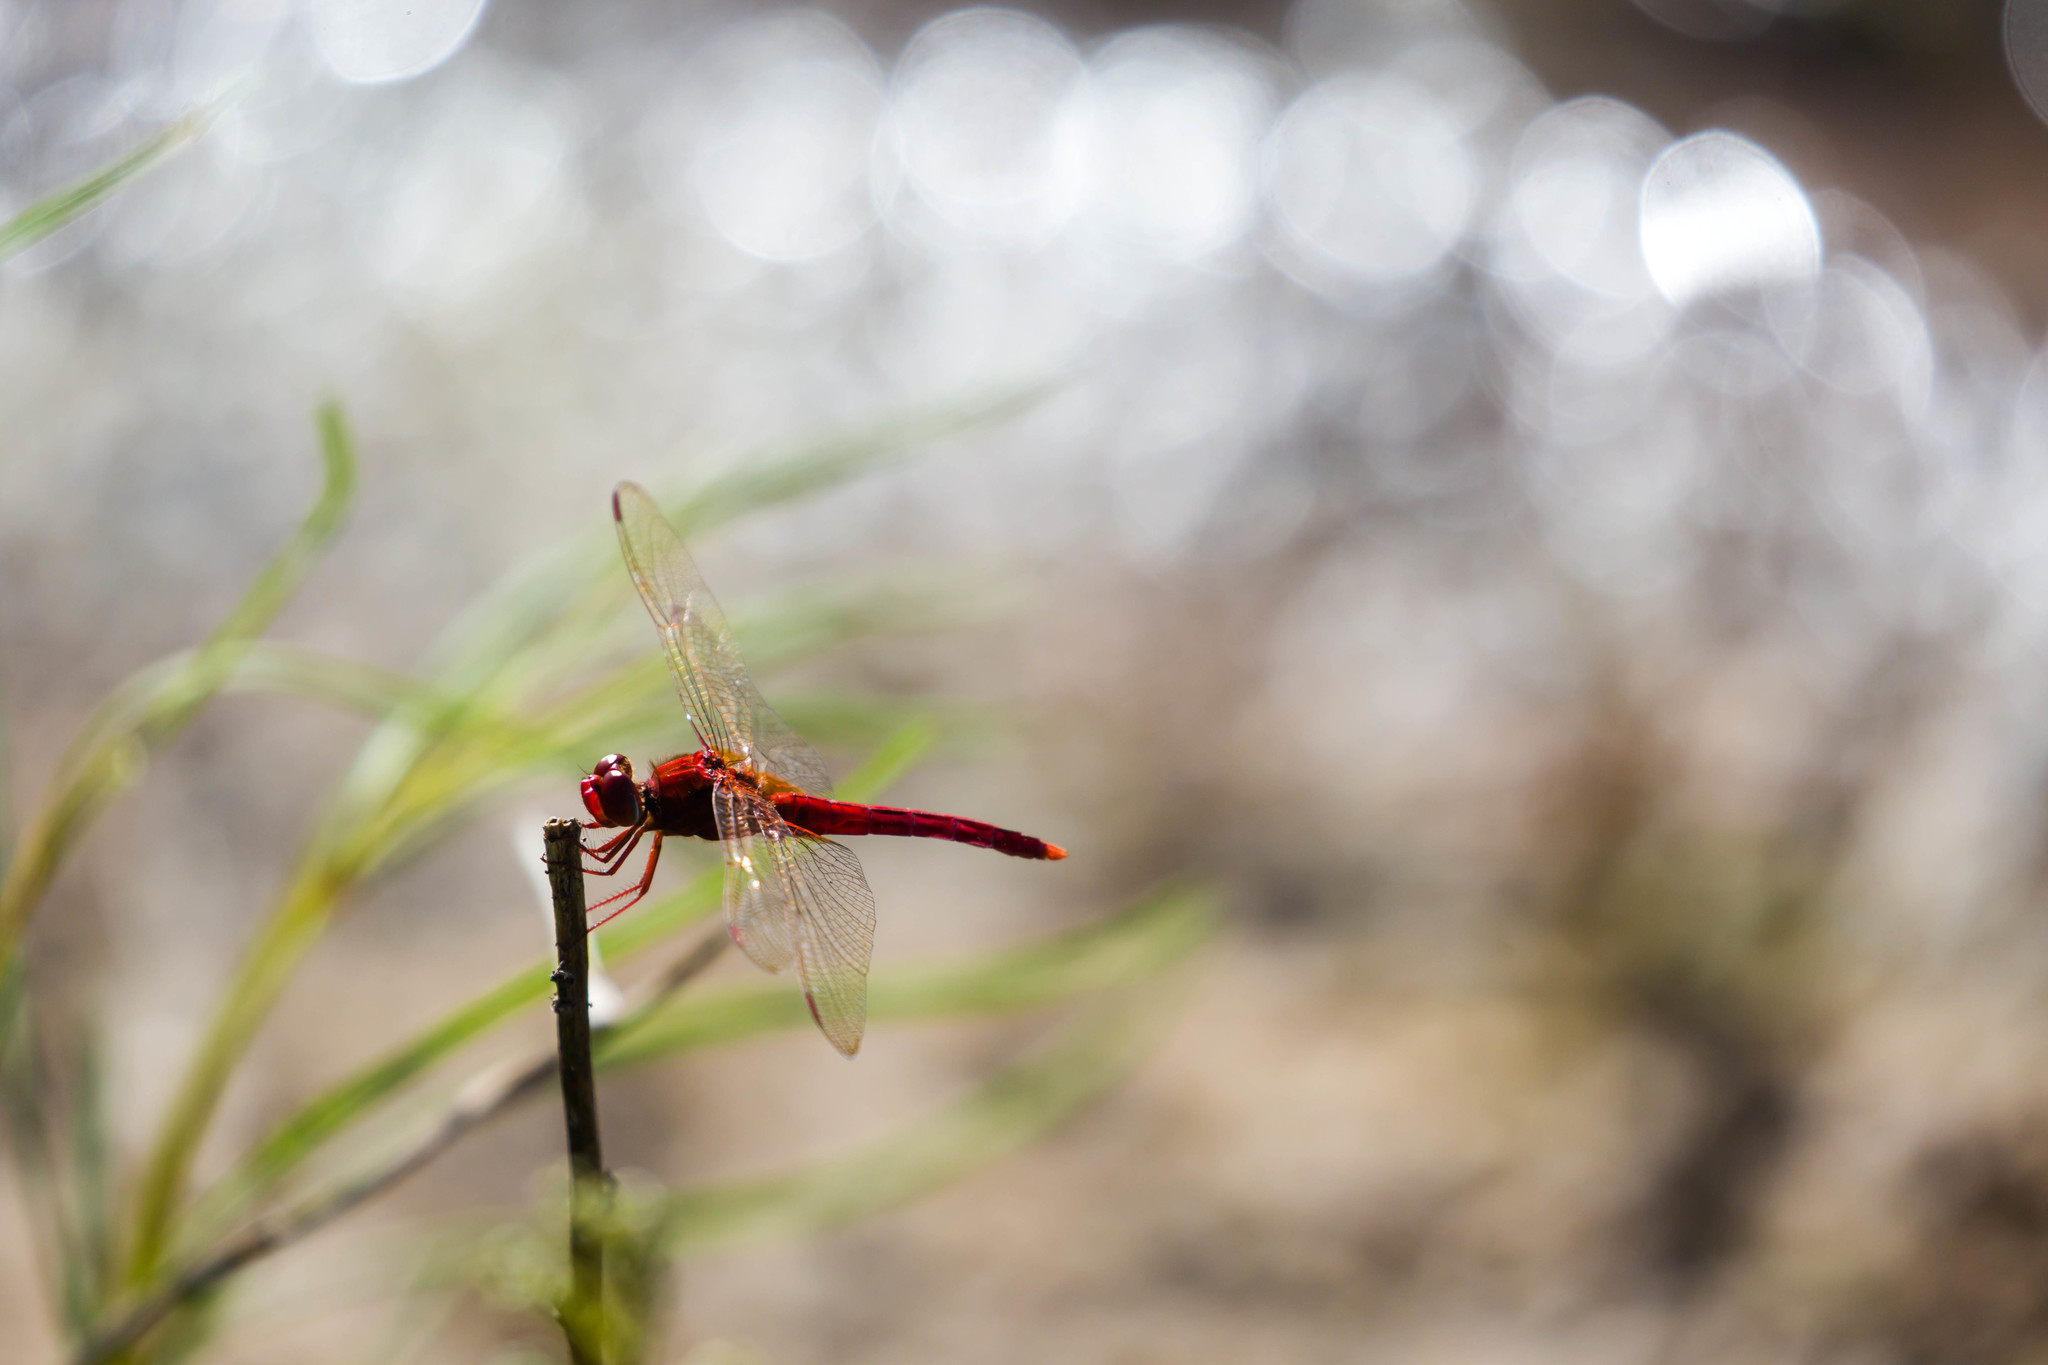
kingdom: Animalia
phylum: Arthropoda
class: Insecta
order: Odonata
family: Libellulidae
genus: Crocothemis
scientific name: Crocothemis servilia
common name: Scarlet skimmer
